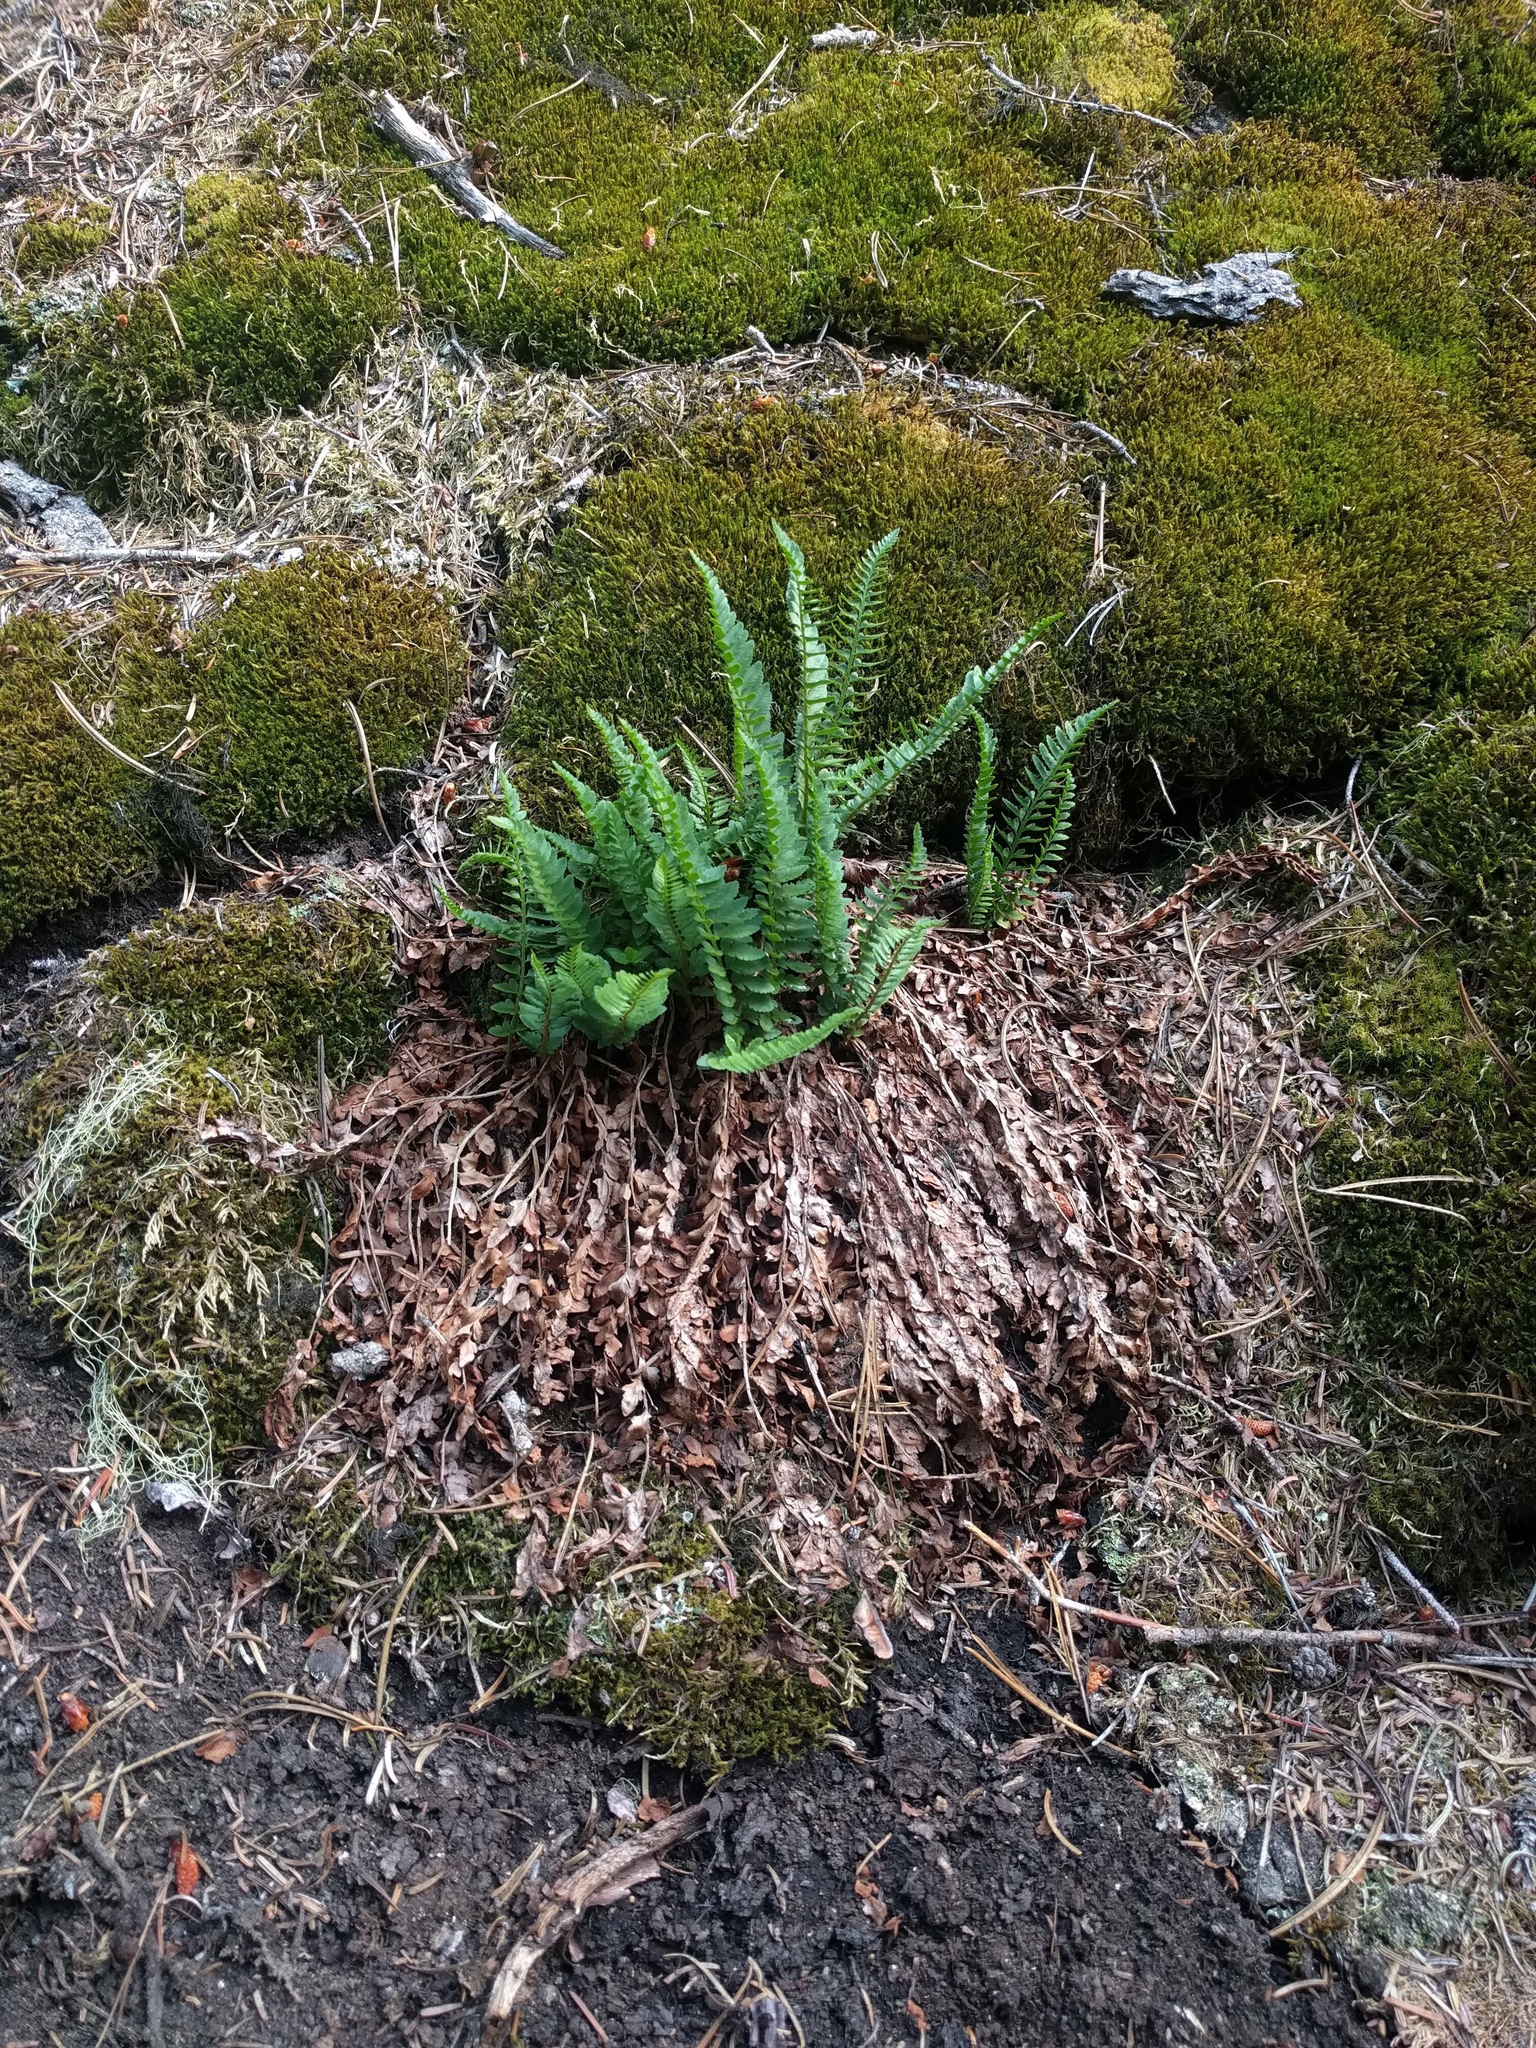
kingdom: Plantae
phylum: Tracheophyta
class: Polypodiopsida
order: Polypodiales
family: Dryopteridaceae
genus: Polystichum
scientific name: Polystichum scopulinum
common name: Eaton's shield fern
